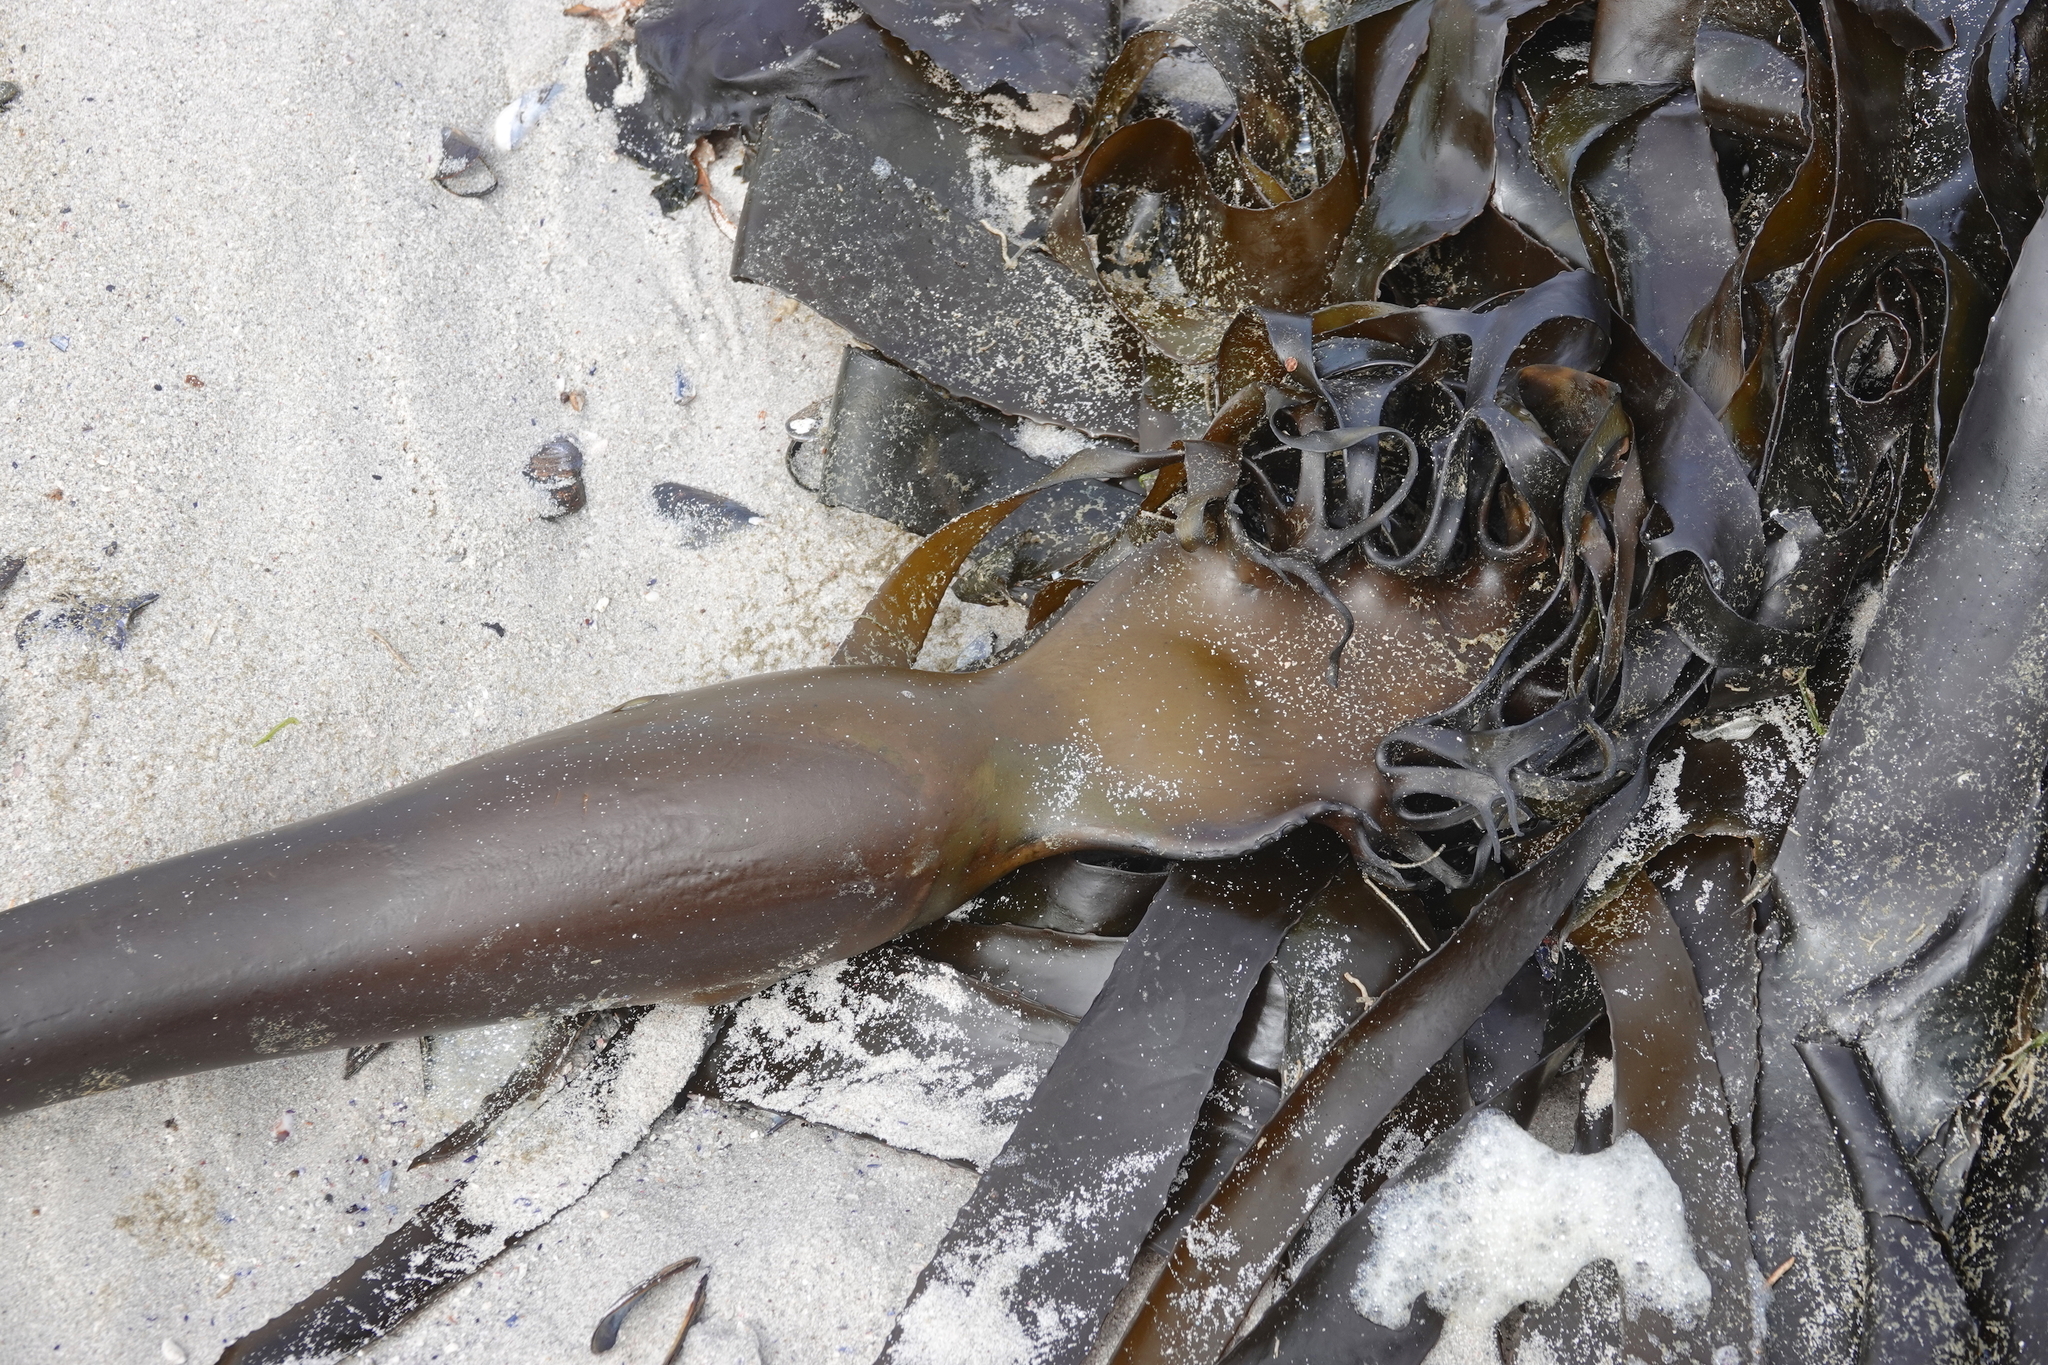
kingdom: Chromista
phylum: Ochrophyta
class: Phaeophyceae
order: Laminariales
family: Lessoniaceae
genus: Ecklonia
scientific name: Ecklonia
